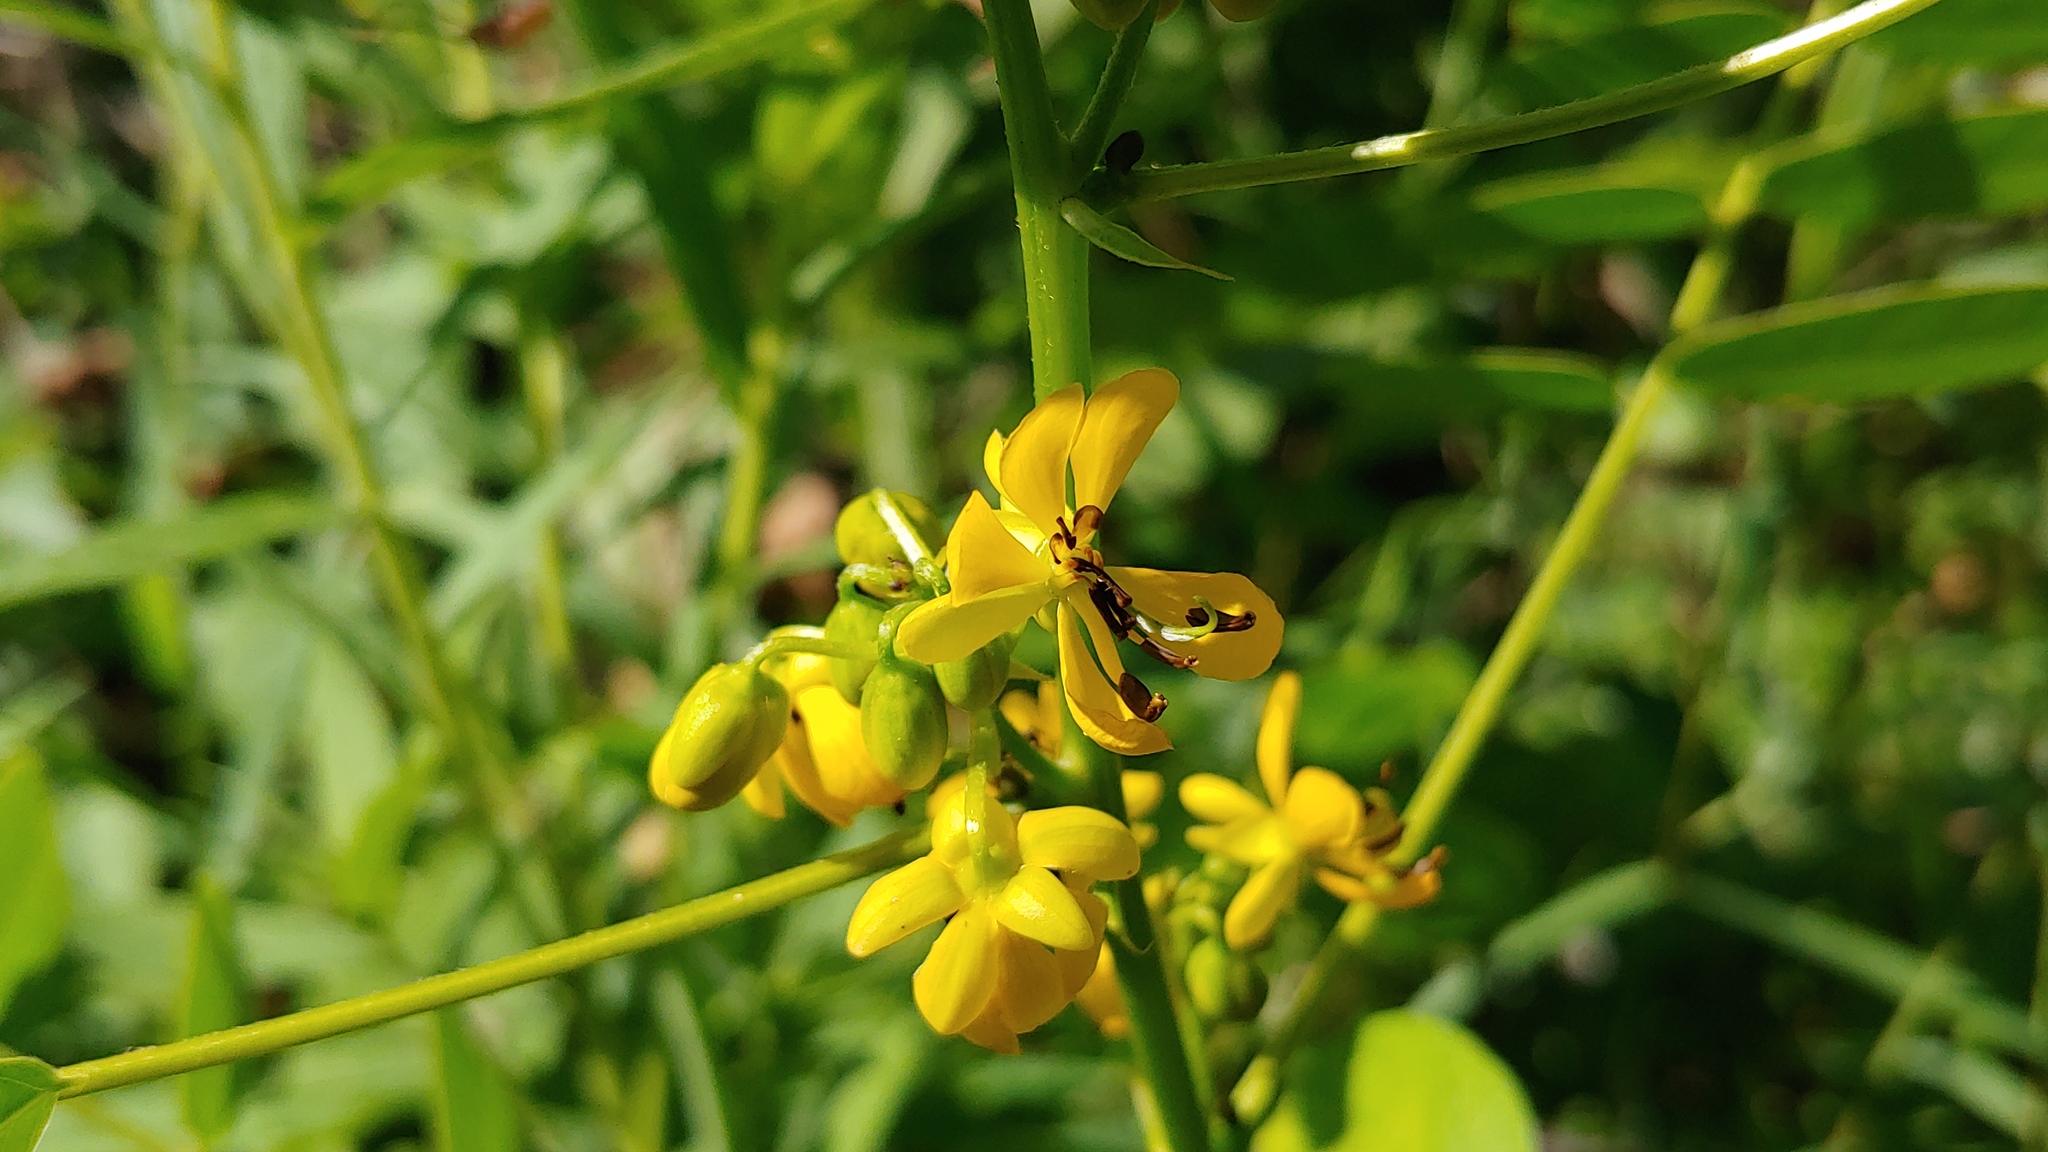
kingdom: Plantae
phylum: Tracheophyta
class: Magnoliopsida
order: Fabales
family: Fabaceae
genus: Senna
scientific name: Senna marilandica
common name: American senna
